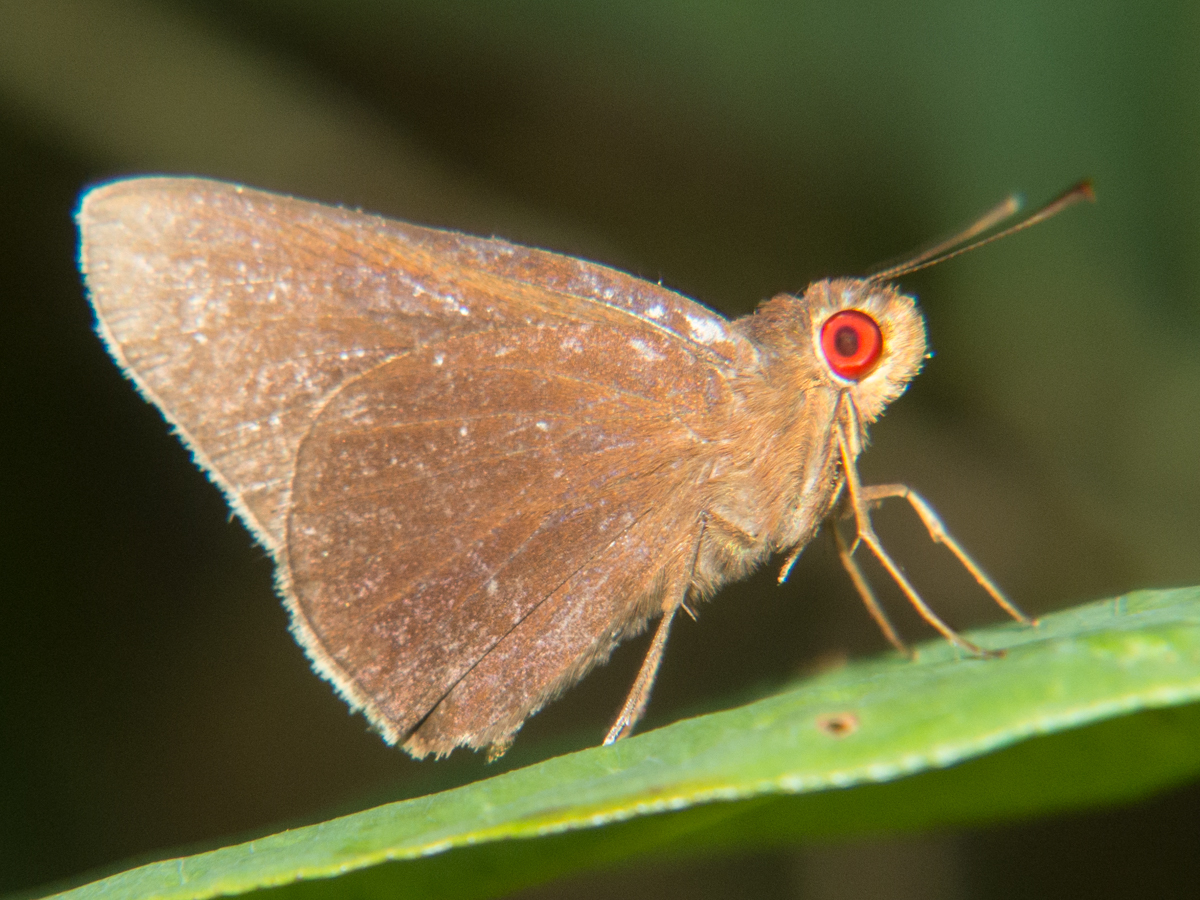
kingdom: Animalia
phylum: Arthropoda
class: Insecta
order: Lepidoptera
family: Hesperiidae
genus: Matapa
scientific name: Matapa aria
